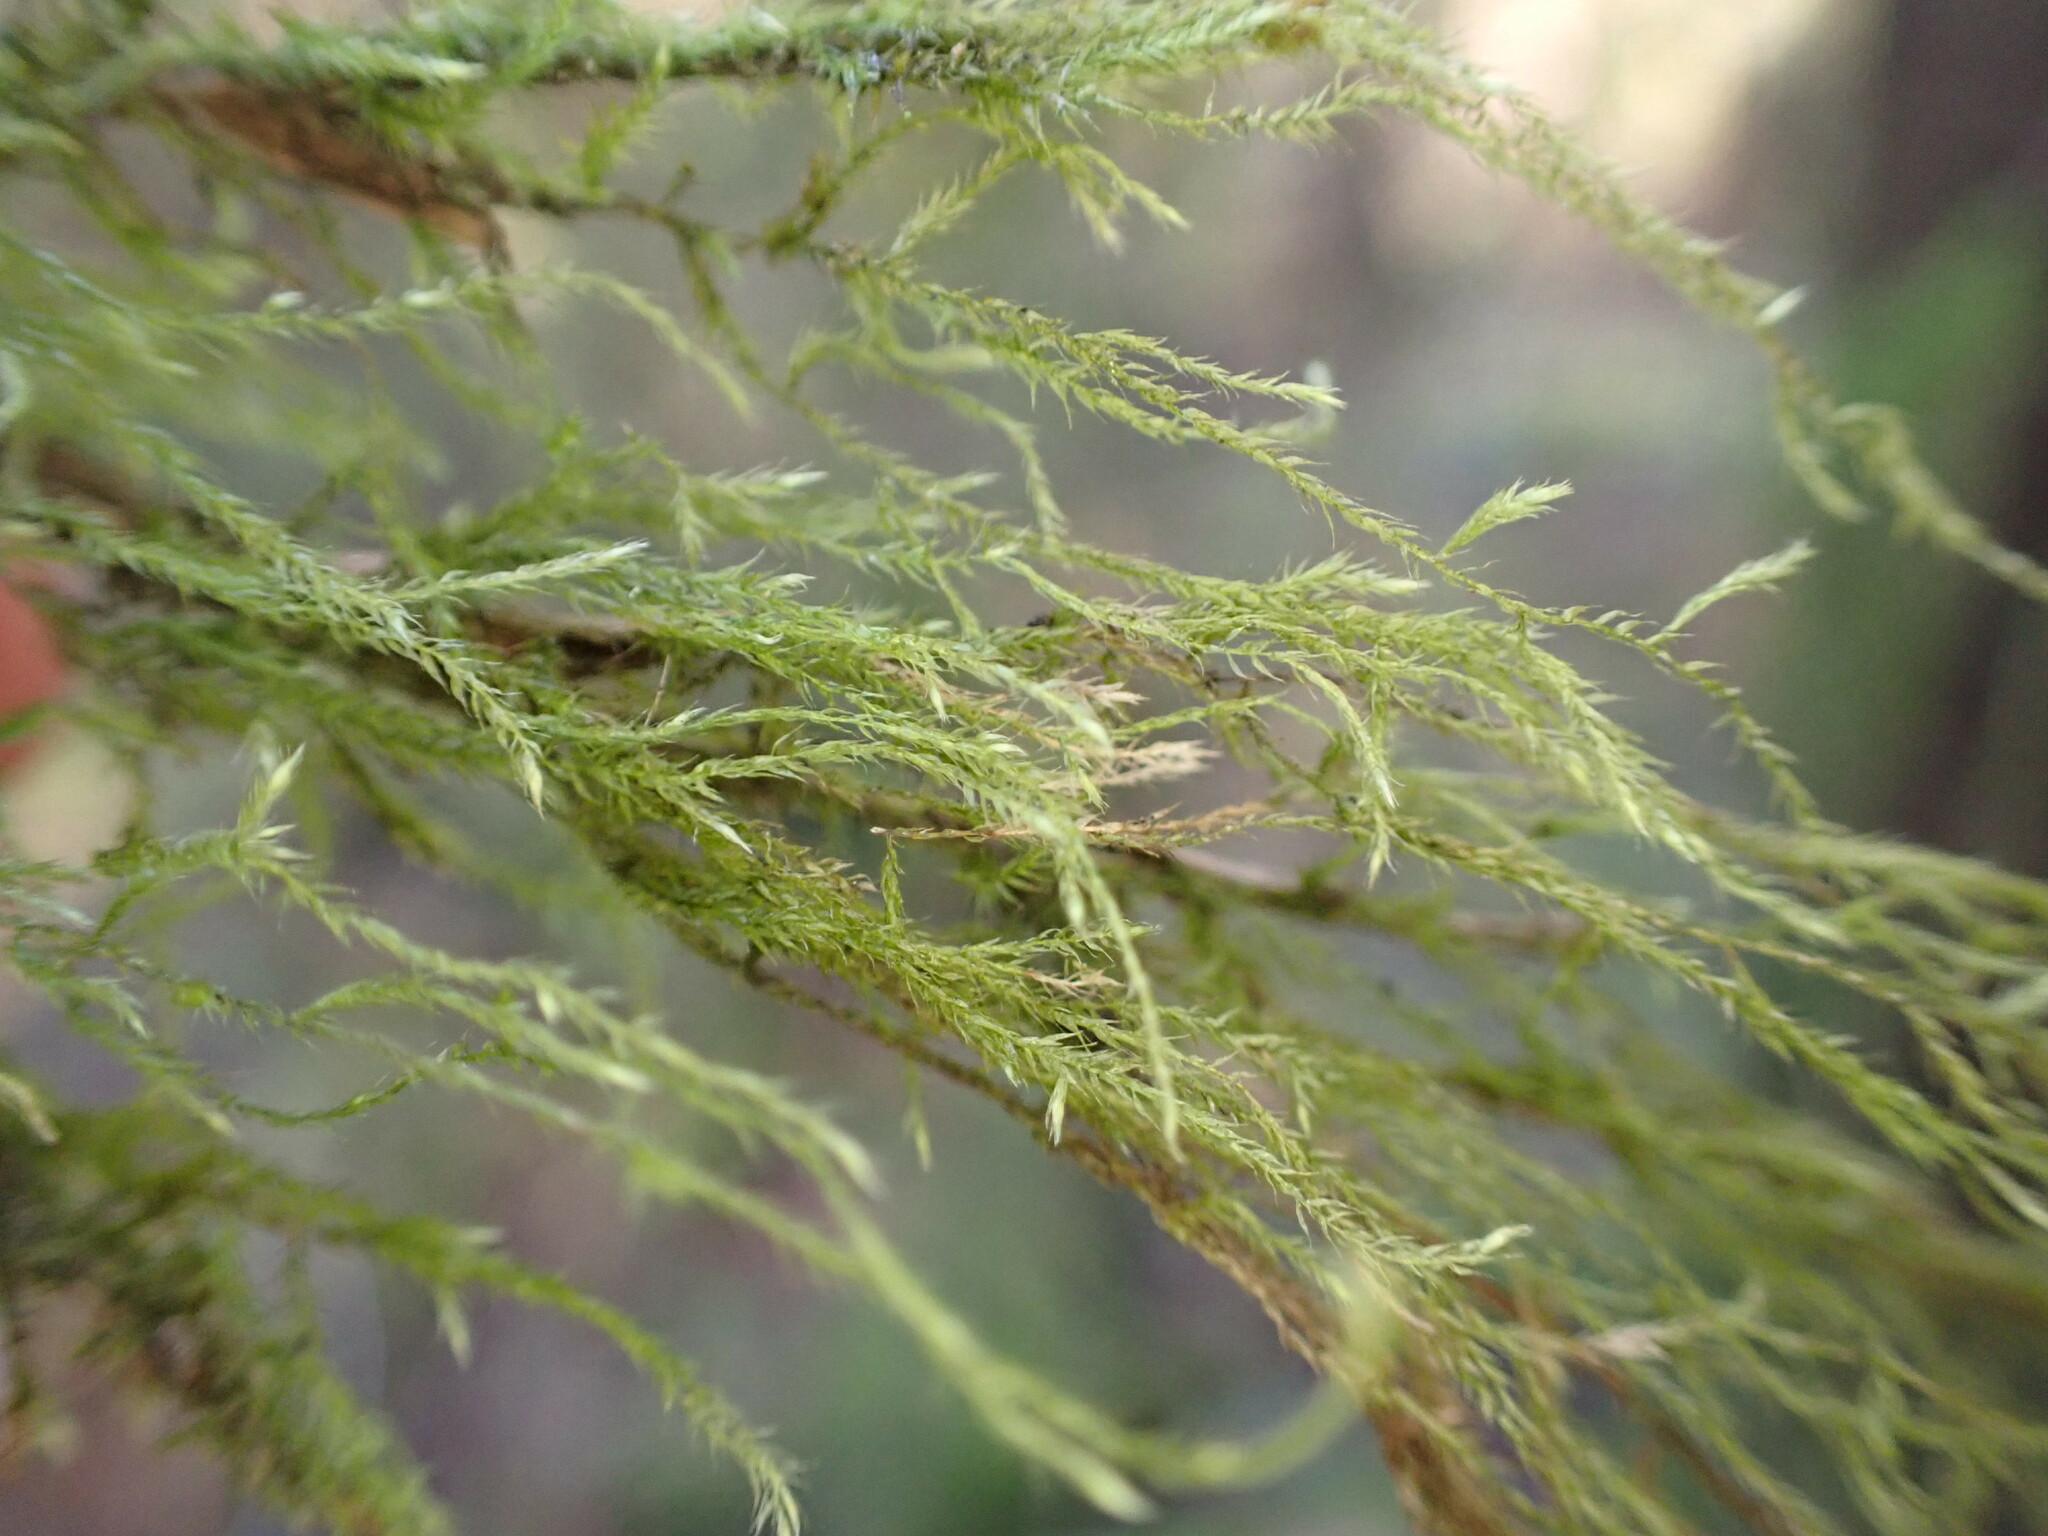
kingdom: Plantae
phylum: Bryophyta
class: Bryopsida
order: Hypnales
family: Lembophyllaceae
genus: Pseudisothecium
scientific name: Pseudisothecium stoloniferum
